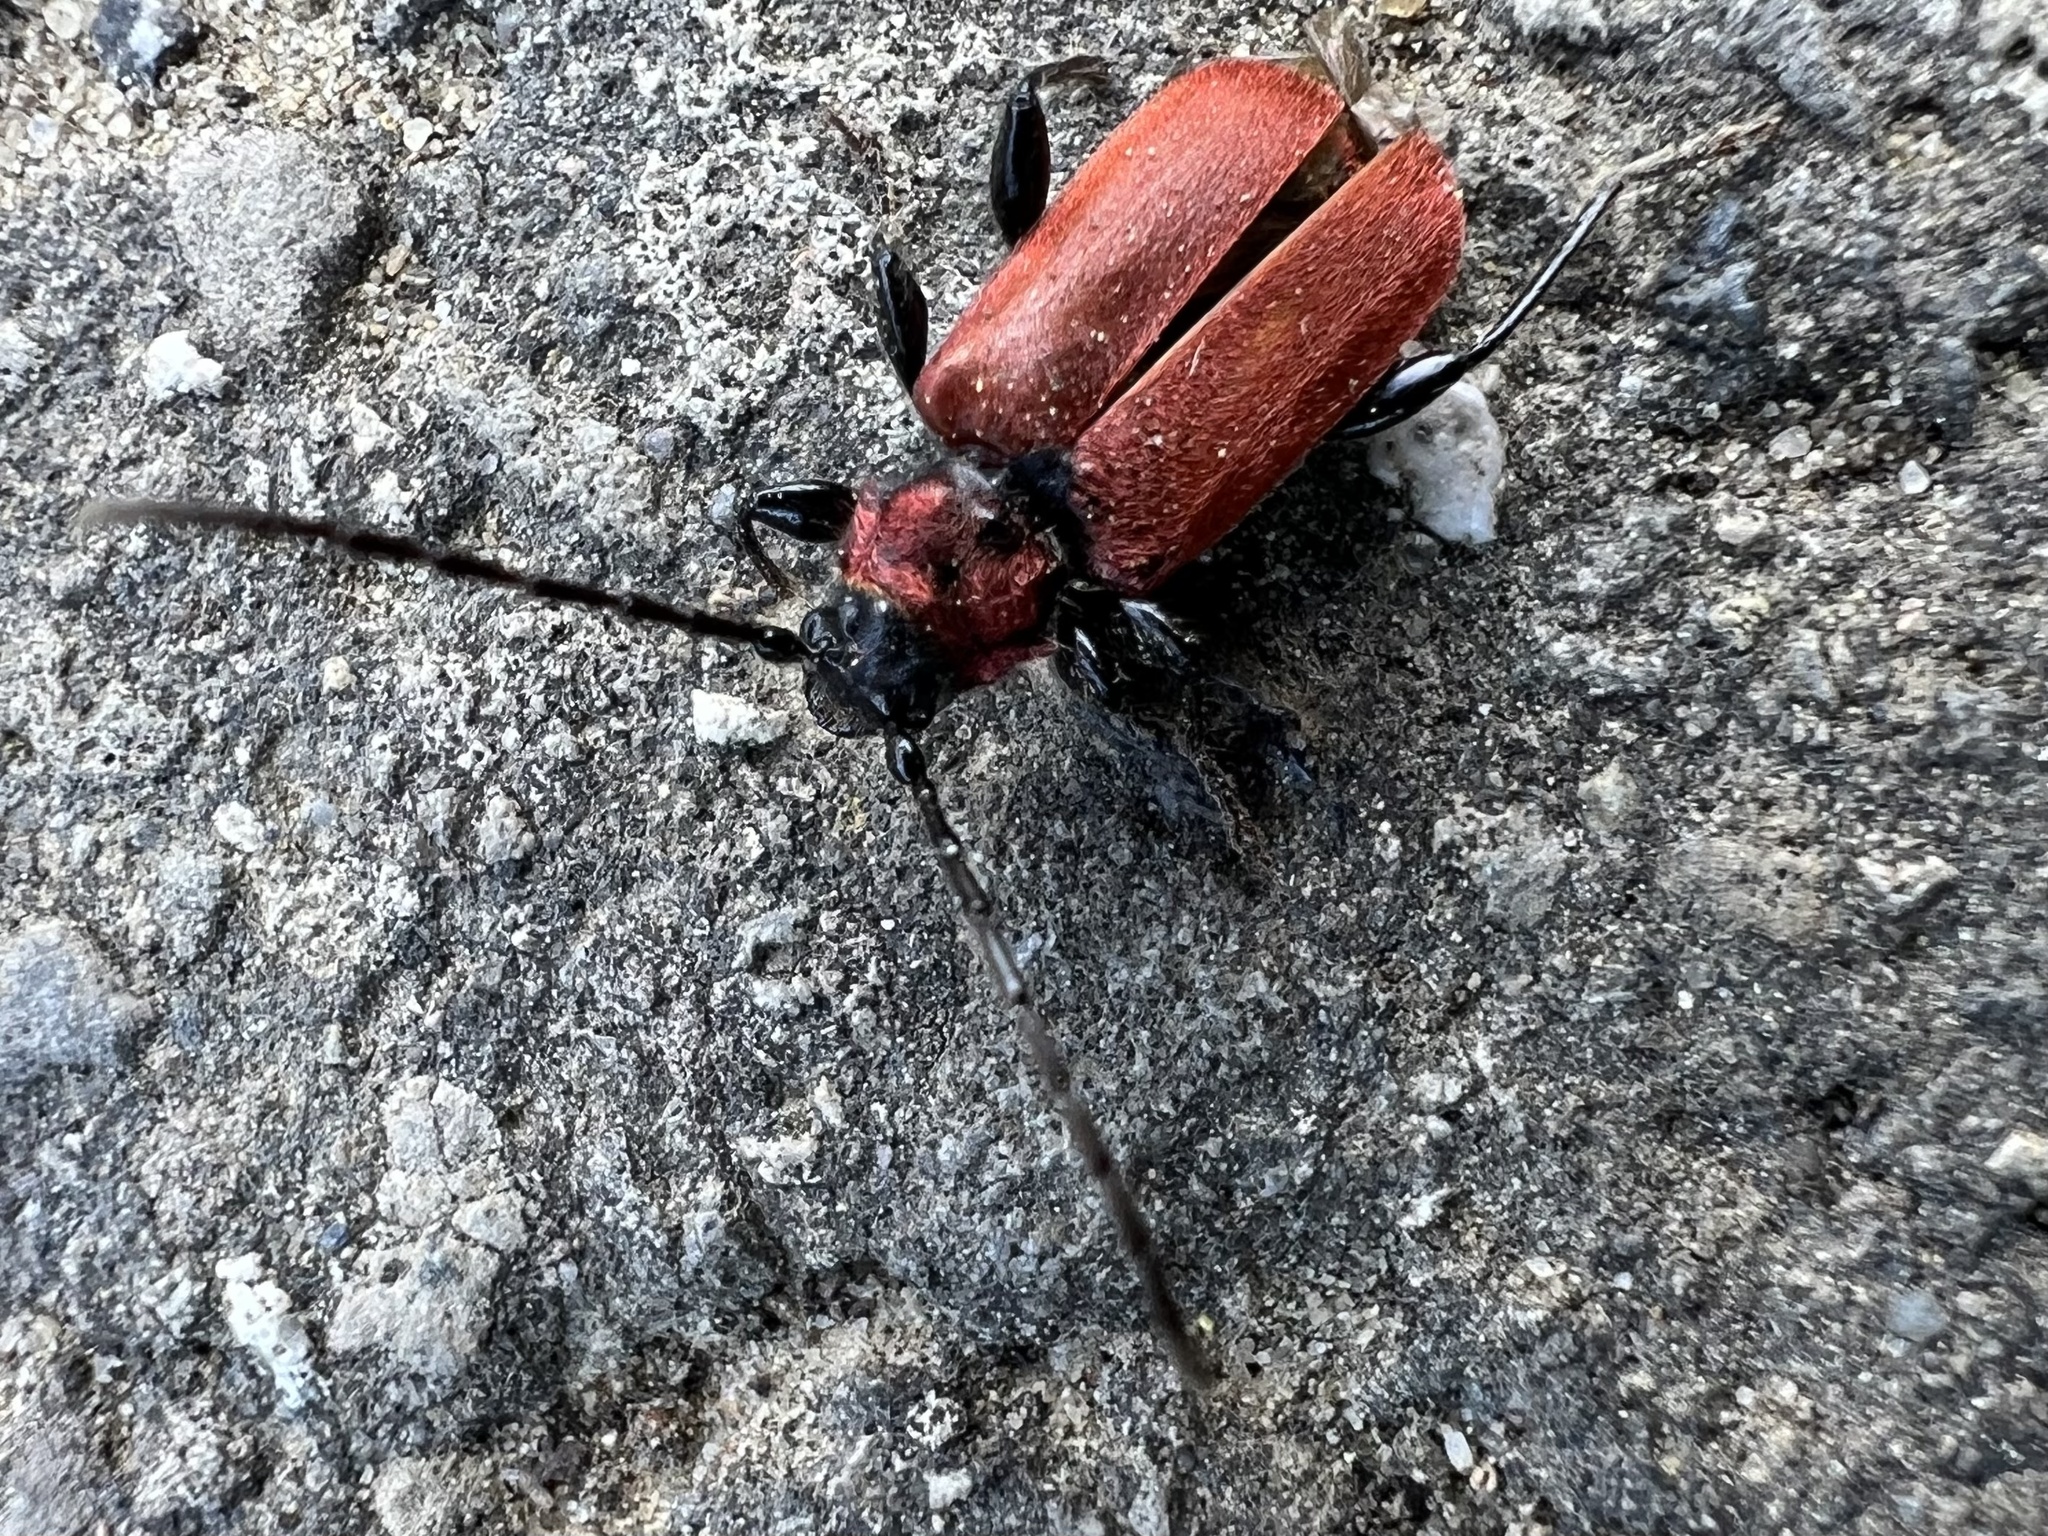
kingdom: Animalia
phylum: Arthropoda
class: Insecta
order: Coleoptera
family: Cerambycidae
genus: Pyrrhidium
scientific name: Pyrrhidium sanguineum
